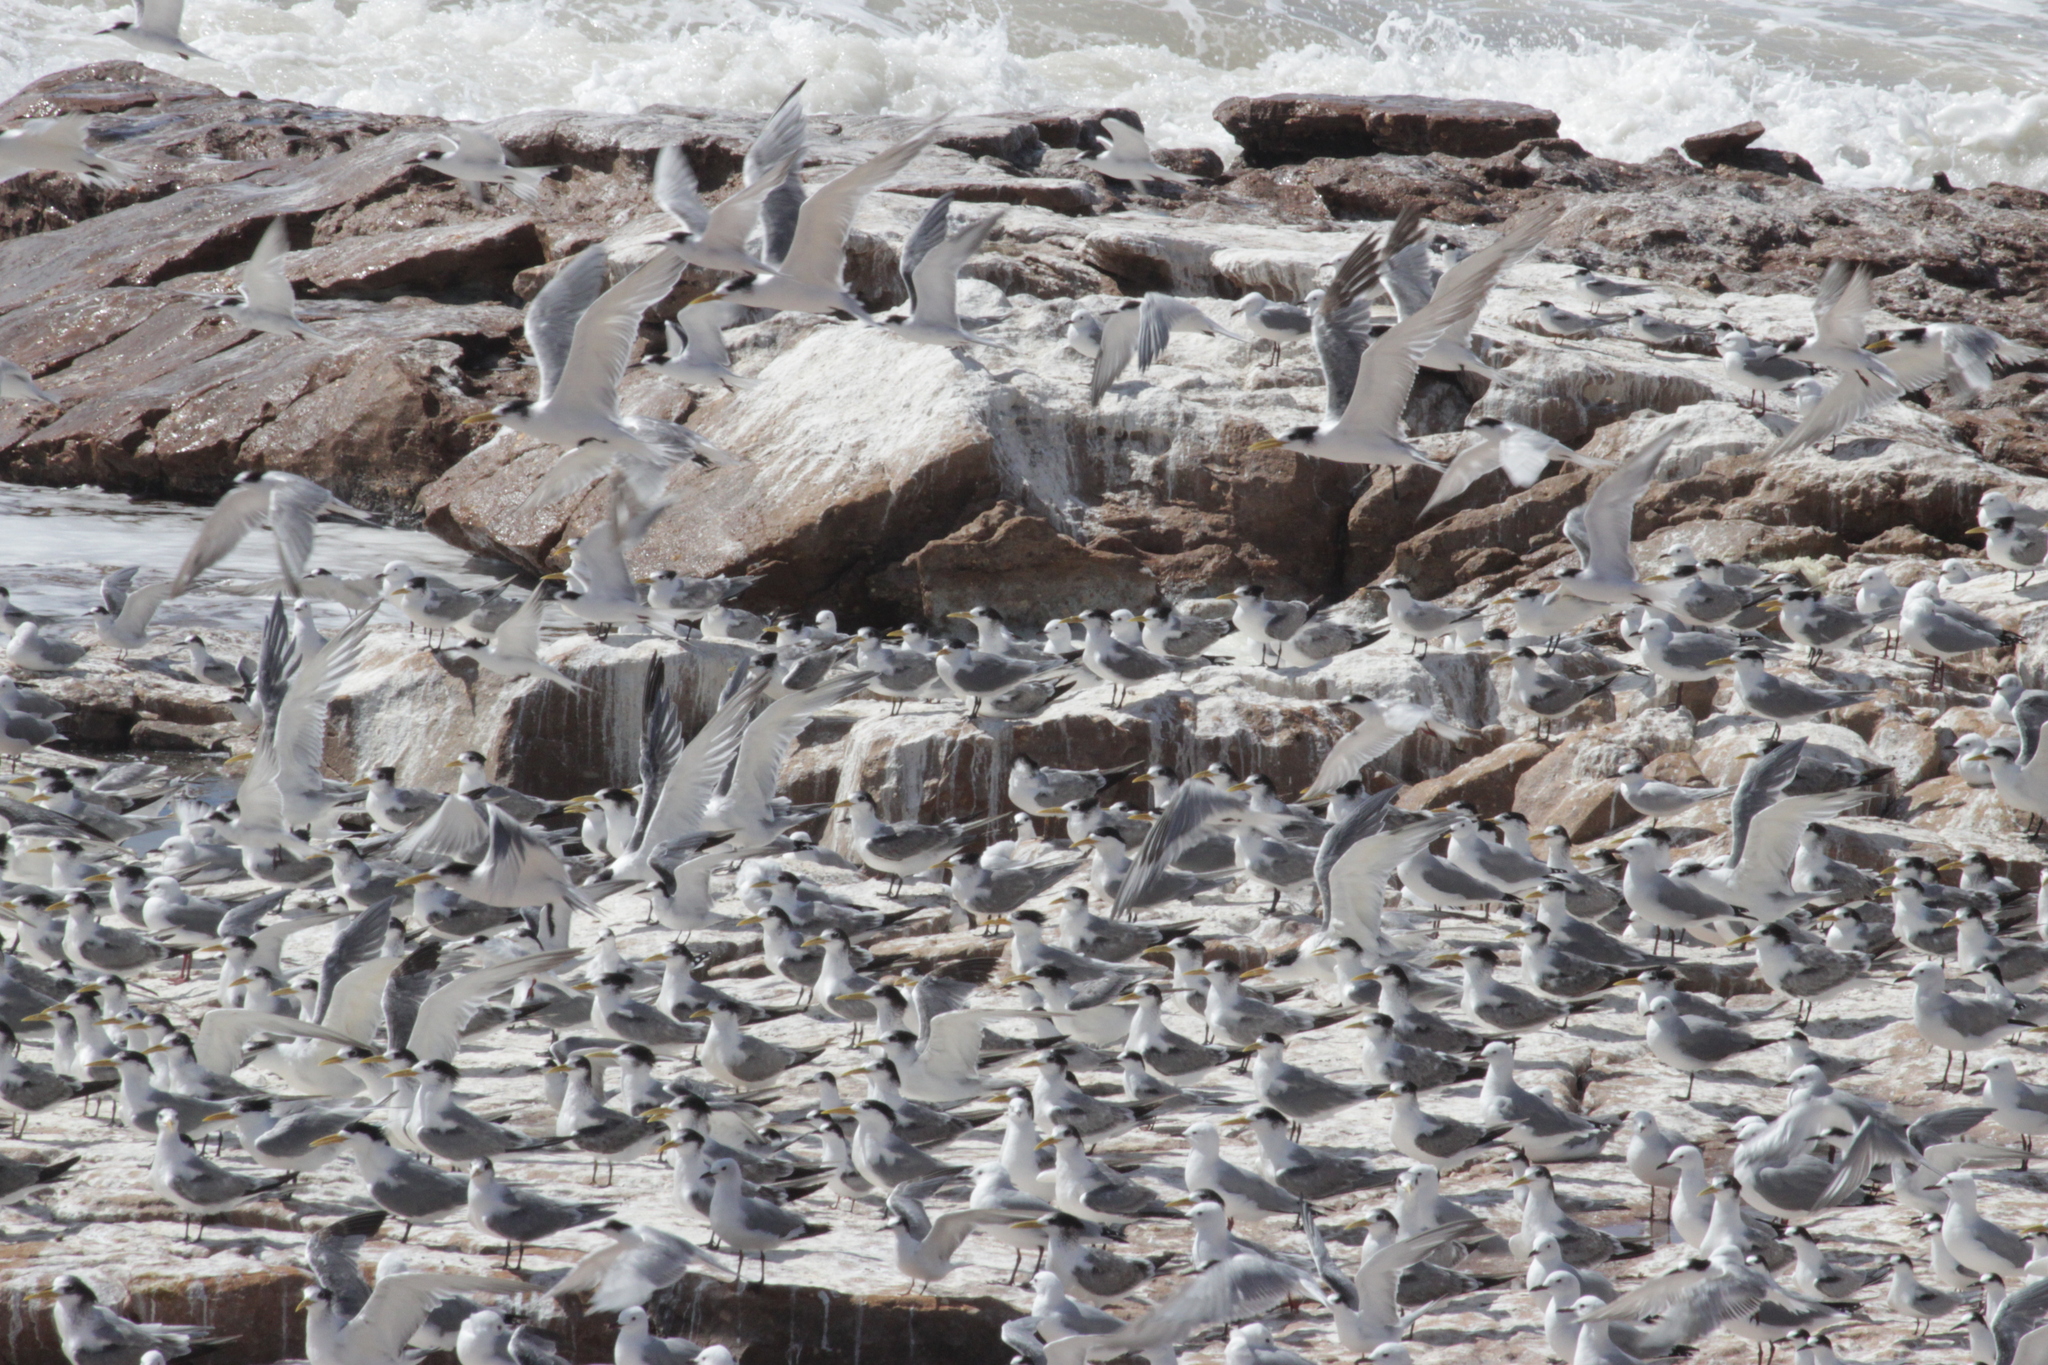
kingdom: Animalia
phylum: Chordata
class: Aves
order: Charadriiformes
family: Laridae
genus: Thalasseus
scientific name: Thalasseus bergii
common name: Greater crested tern
